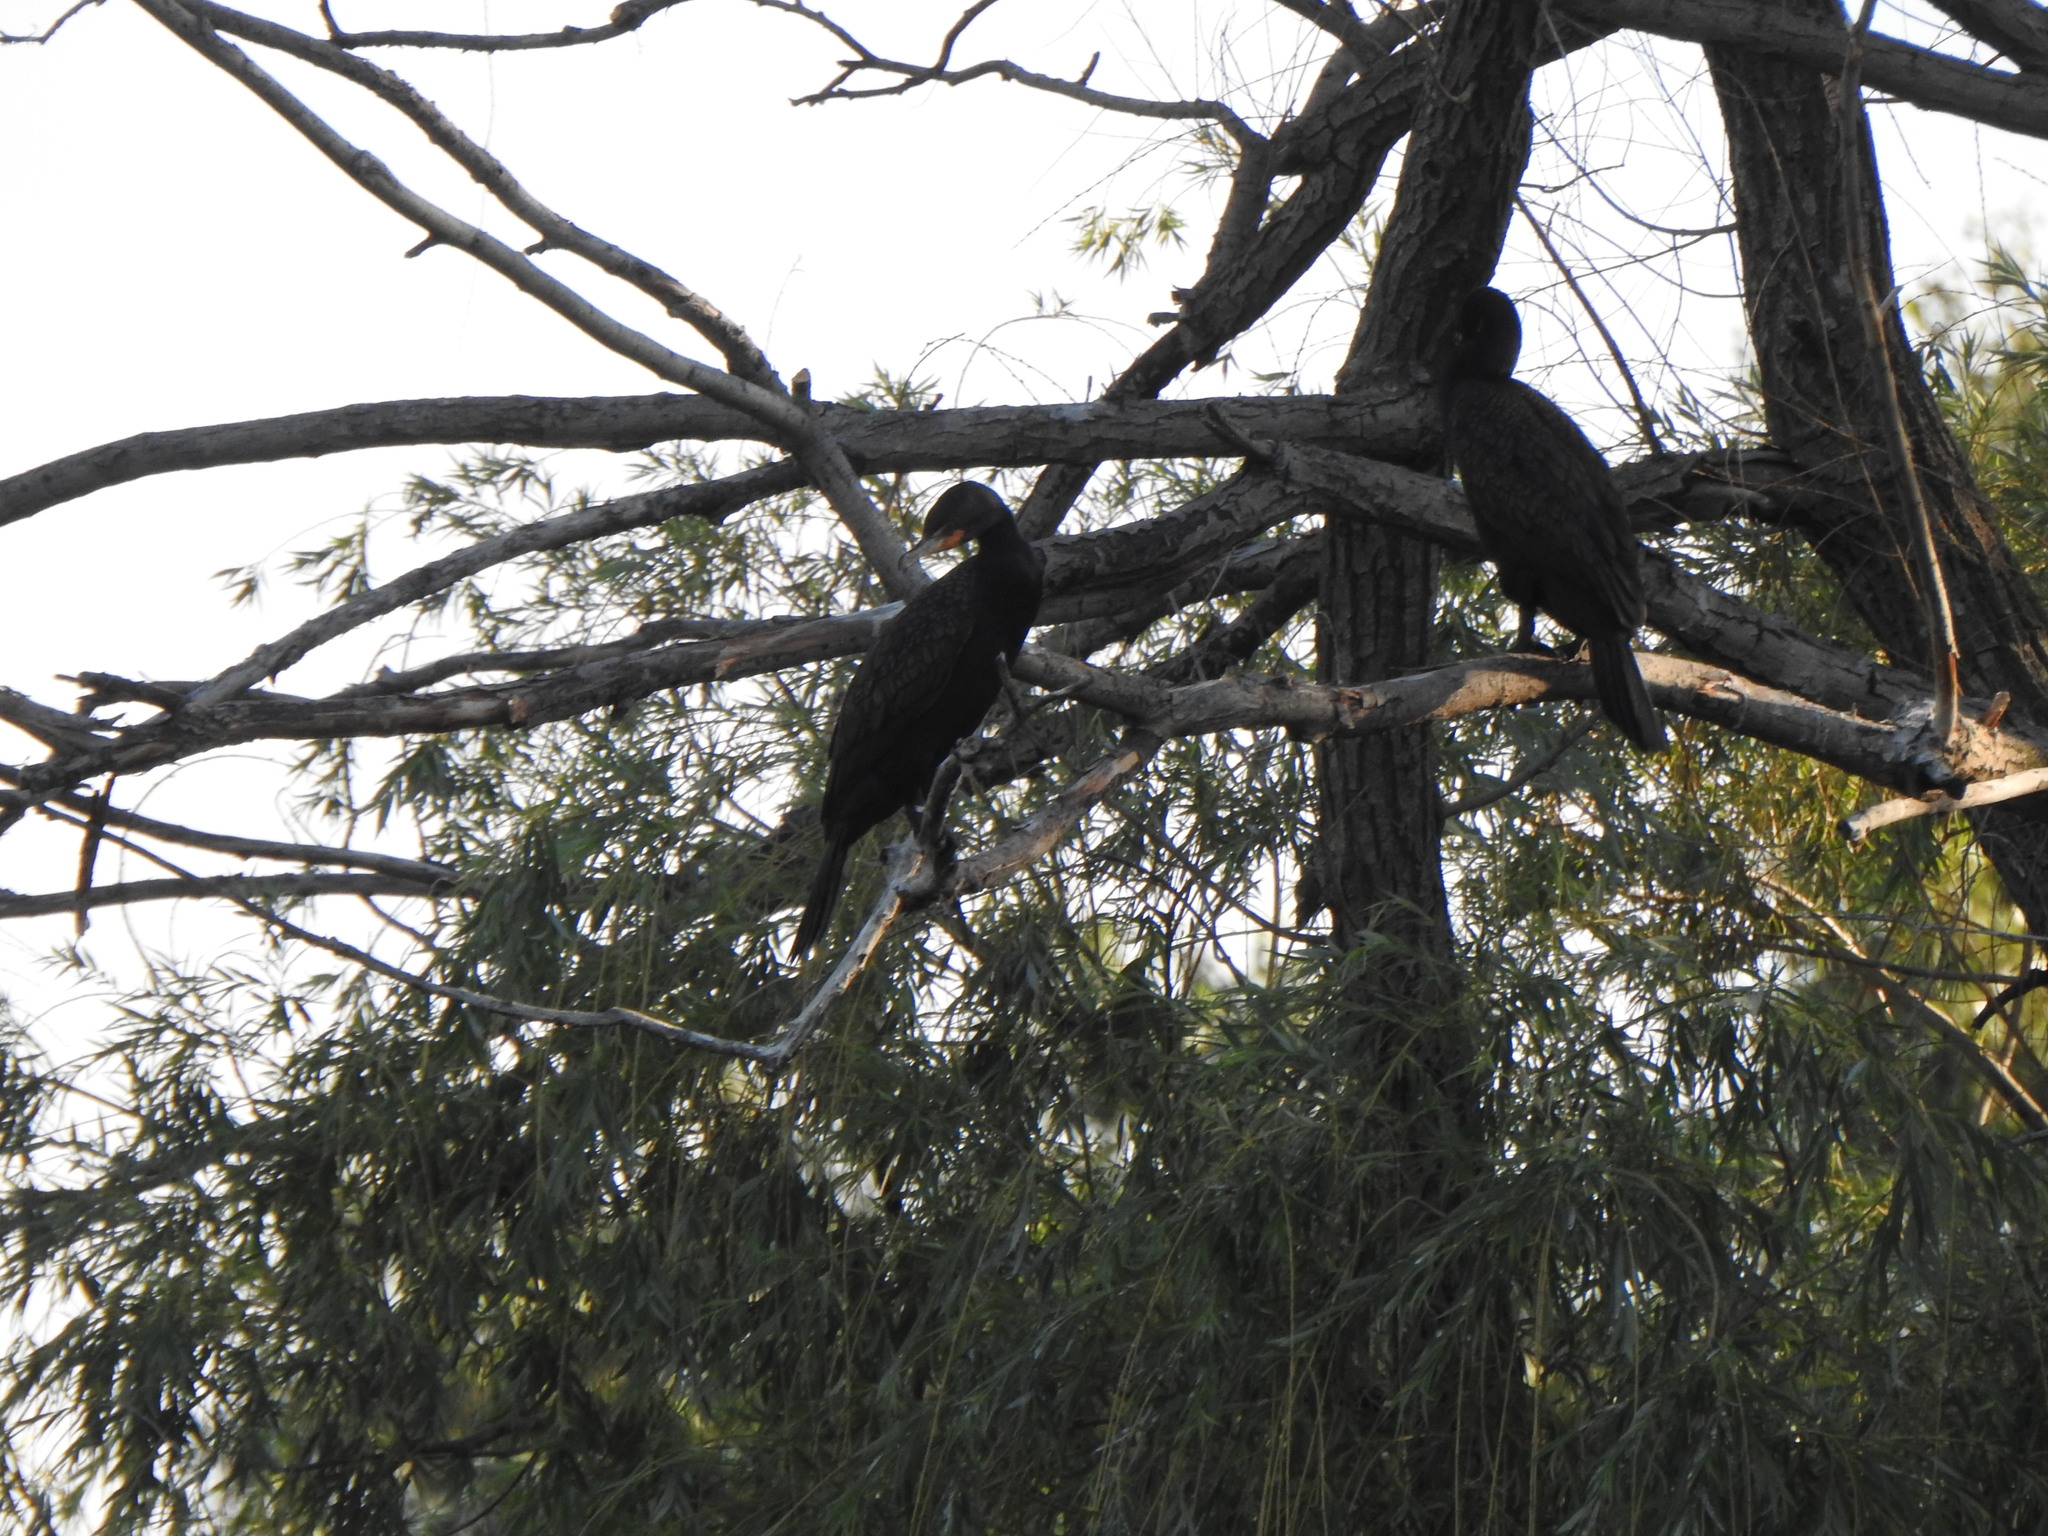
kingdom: Animalia
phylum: Chordata
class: Aves
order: Suliformes
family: Phalacrocoracidae
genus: Phalacrocorax
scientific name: Phalacrocorax auritus
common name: Double-crested cormorant
